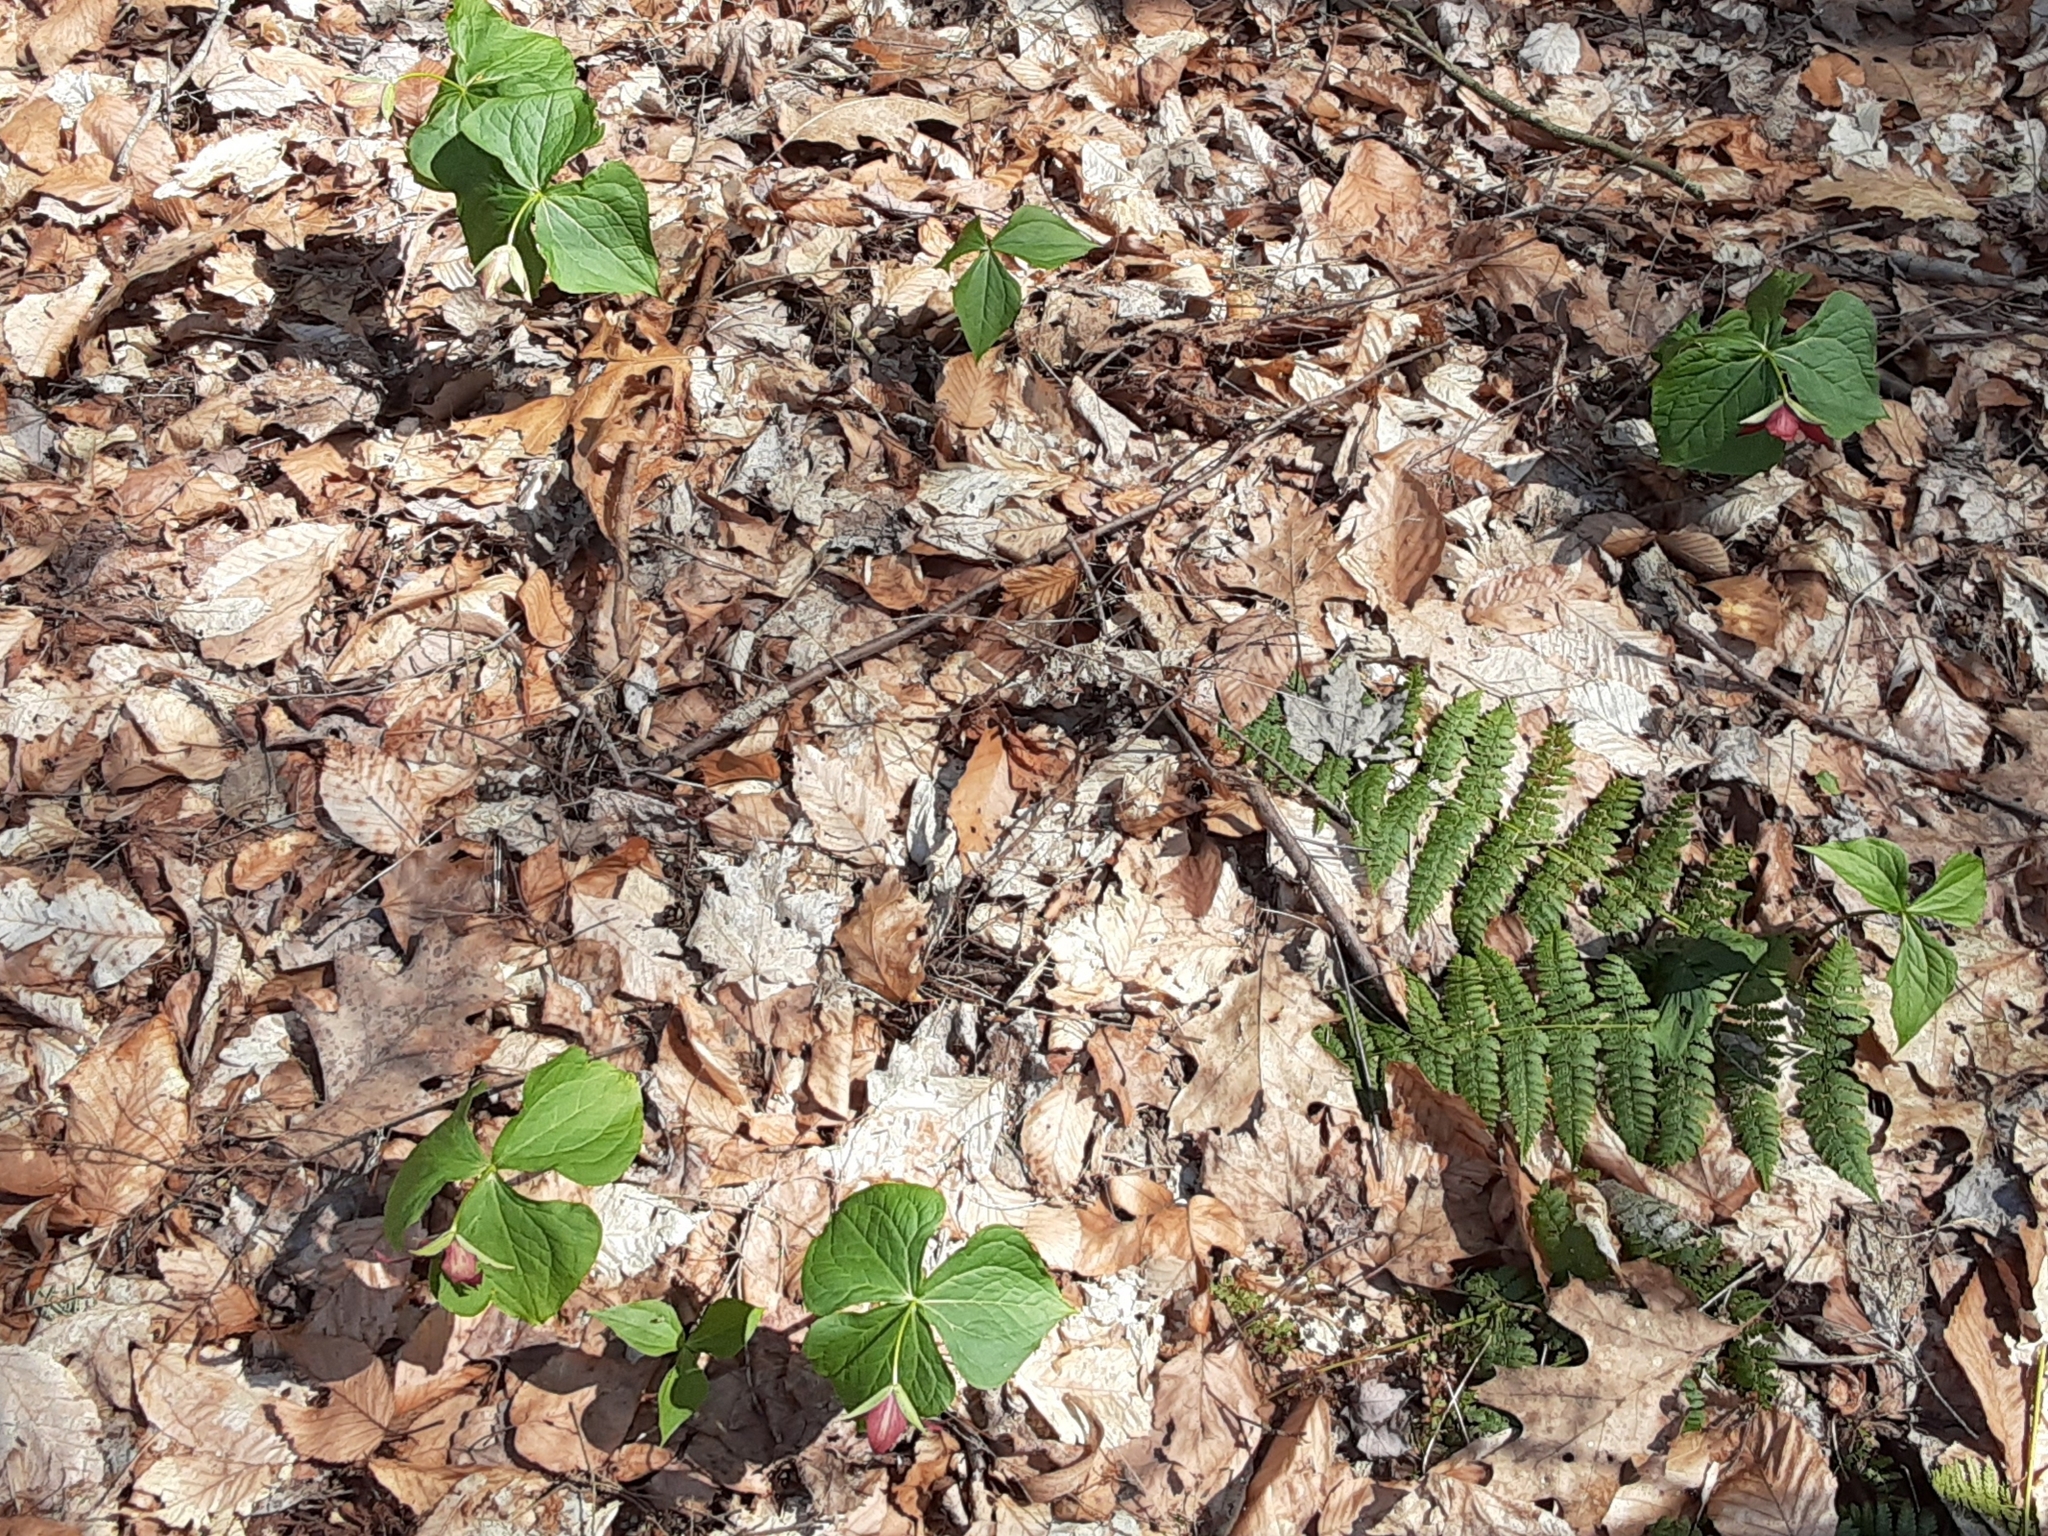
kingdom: Plantae
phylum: Tracheophyta
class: Liliopsida
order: Liliales
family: Melanthiaceae
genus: Trillium
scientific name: Trillium erectum
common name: Purple trillium
